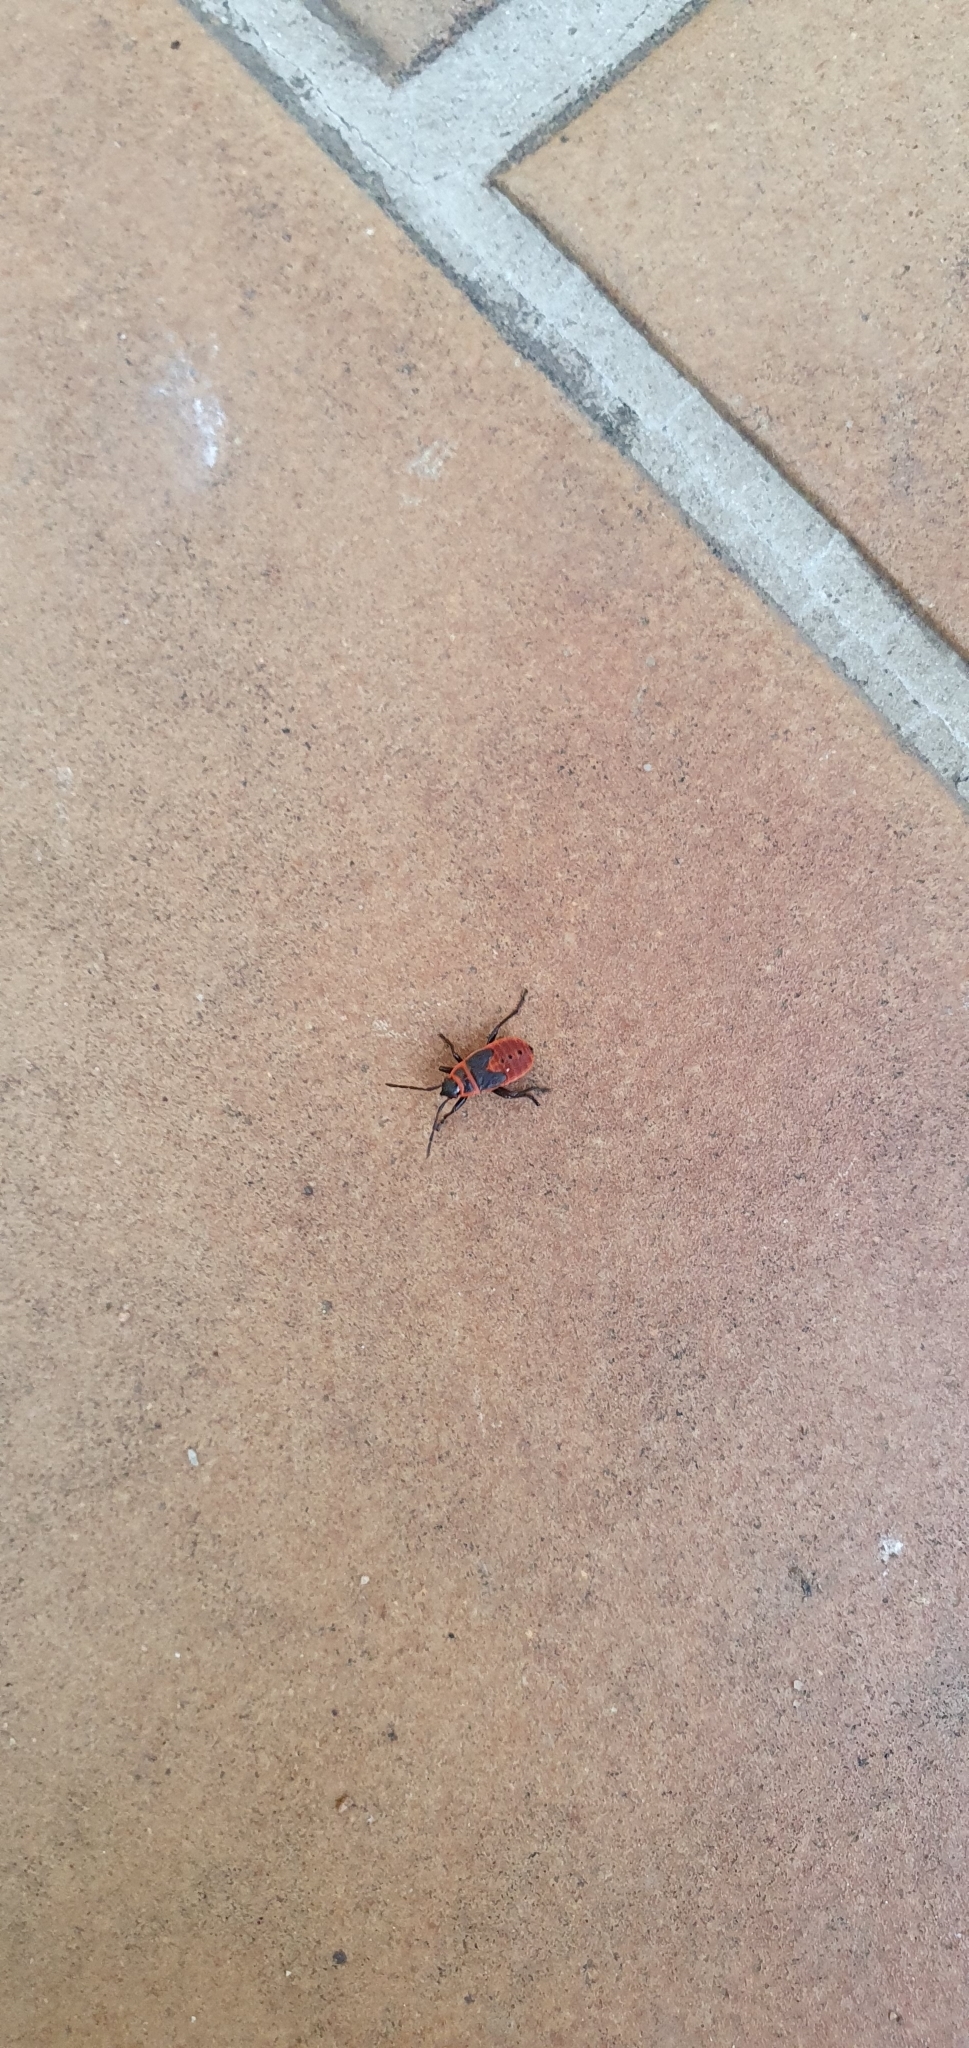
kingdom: Animalia
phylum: Arthropoda
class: Insecta
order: Hemiptera
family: Pyrrhocoridae
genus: Pyrrhocoris
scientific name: Pyrrhocoris apterus
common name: Firebug
